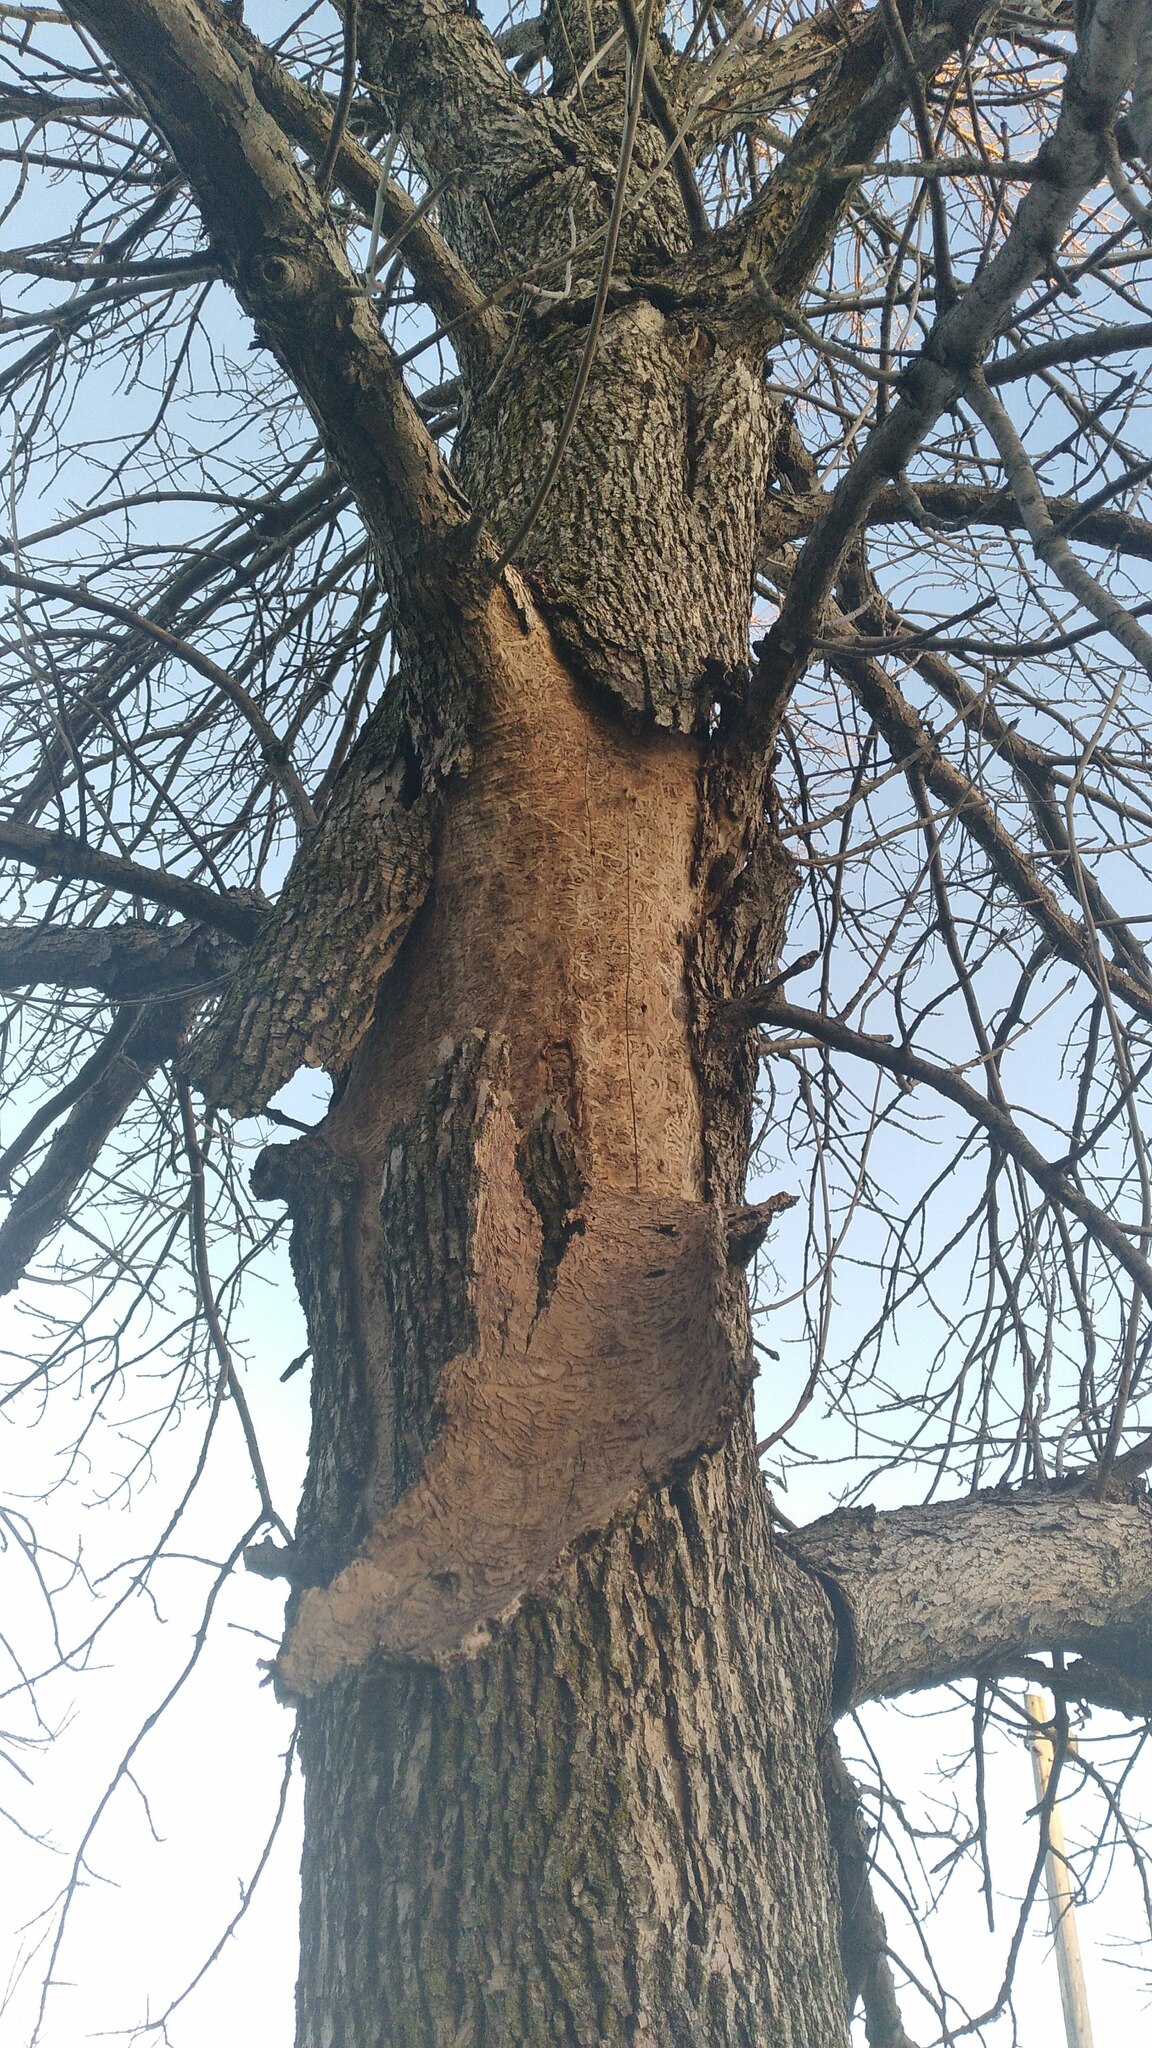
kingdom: Animalia
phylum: Arthropoda
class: Insecta
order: Coleoptera
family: Buprestidae
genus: Agrilus
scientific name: Agrilus planipennis
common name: Emerald ash borer
